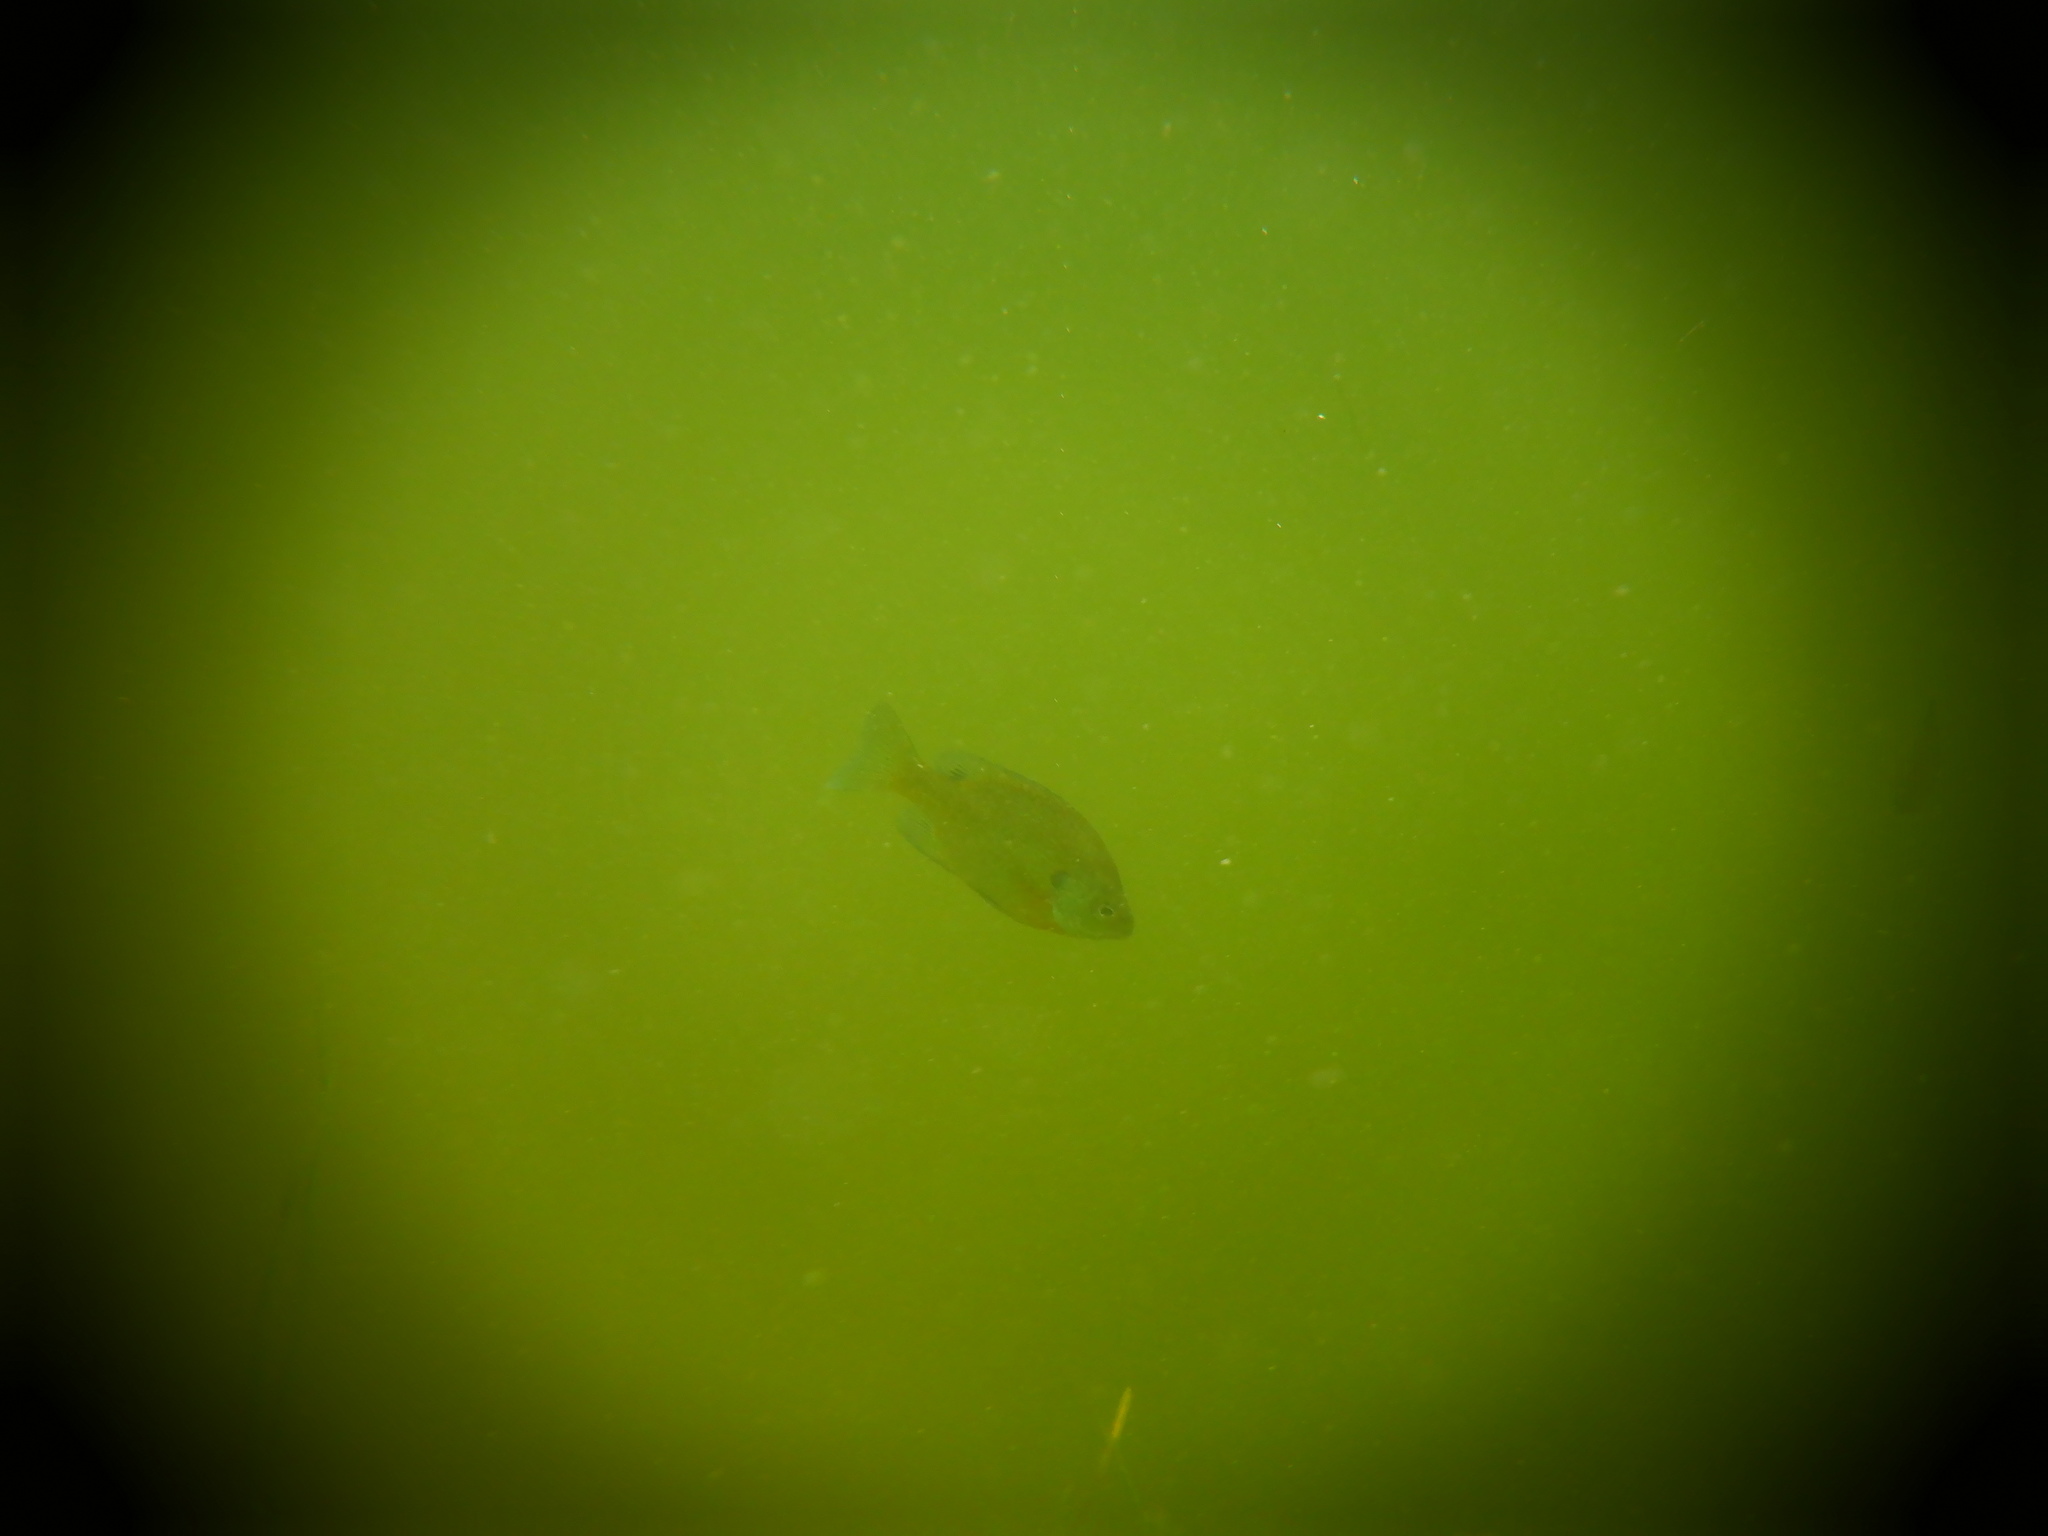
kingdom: Animalia
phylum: Chordata
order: Perciformes
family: Centrarchidae
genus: Lepomis
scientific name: Lepomis macrochirus
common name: Bluegill
